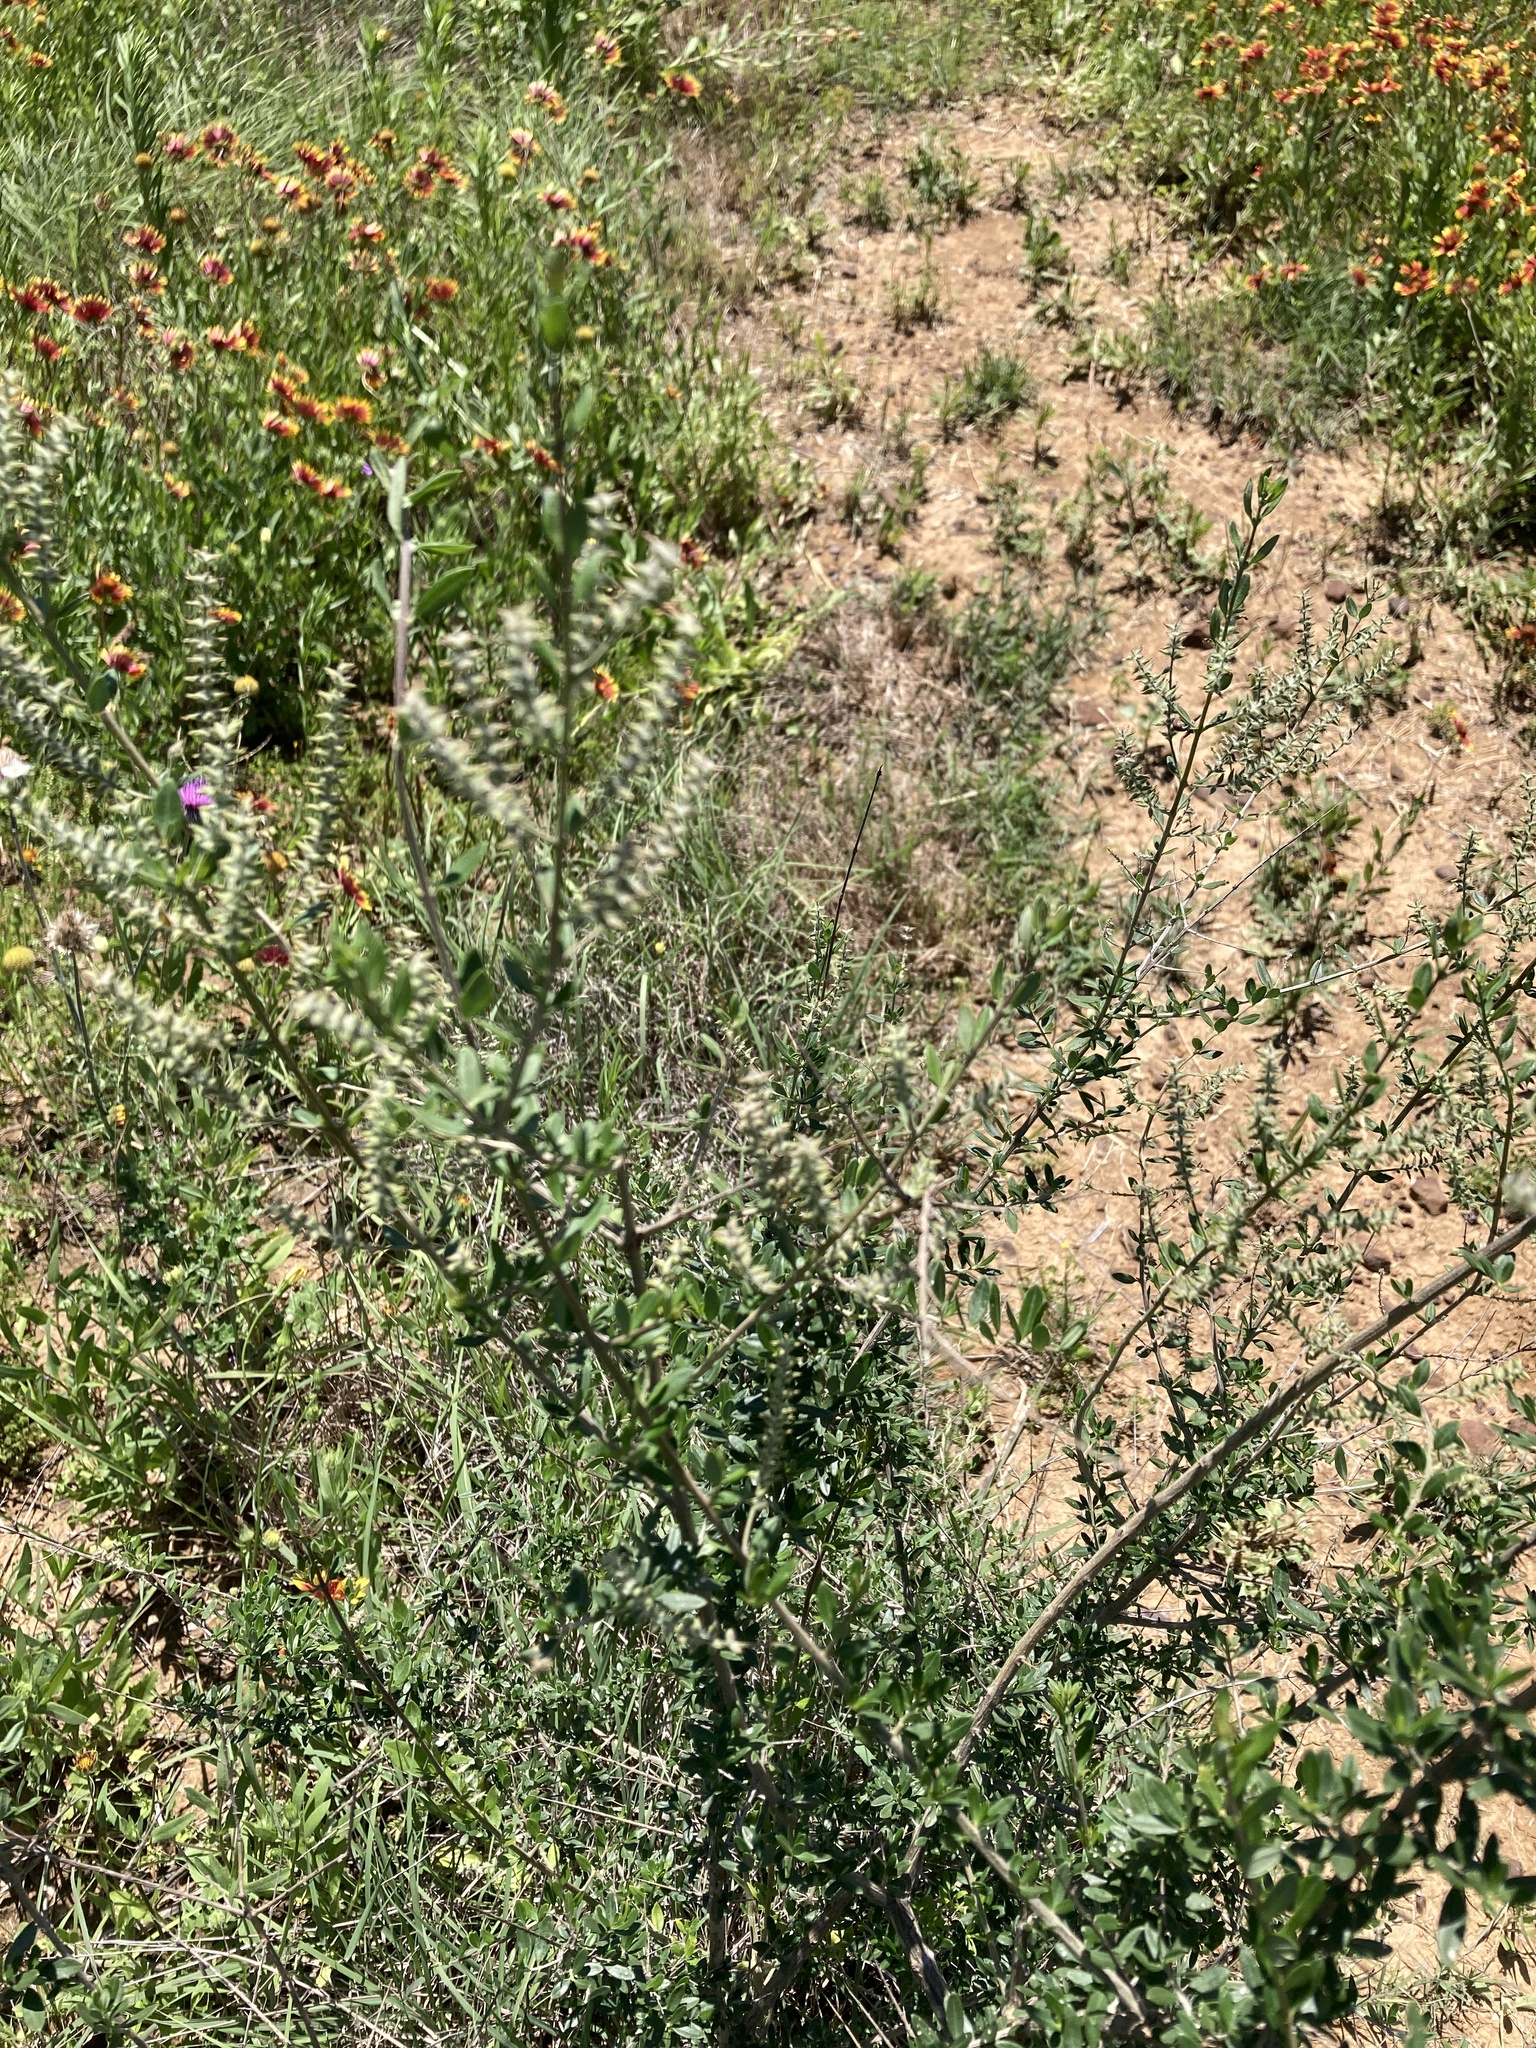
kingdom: Plantae
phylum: Tracheophyta
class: Magnoliopsida
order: Lamiales
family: Verbenaceae
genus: Aloysia
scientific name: Aloysia gratissima
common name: Common bee-brush
